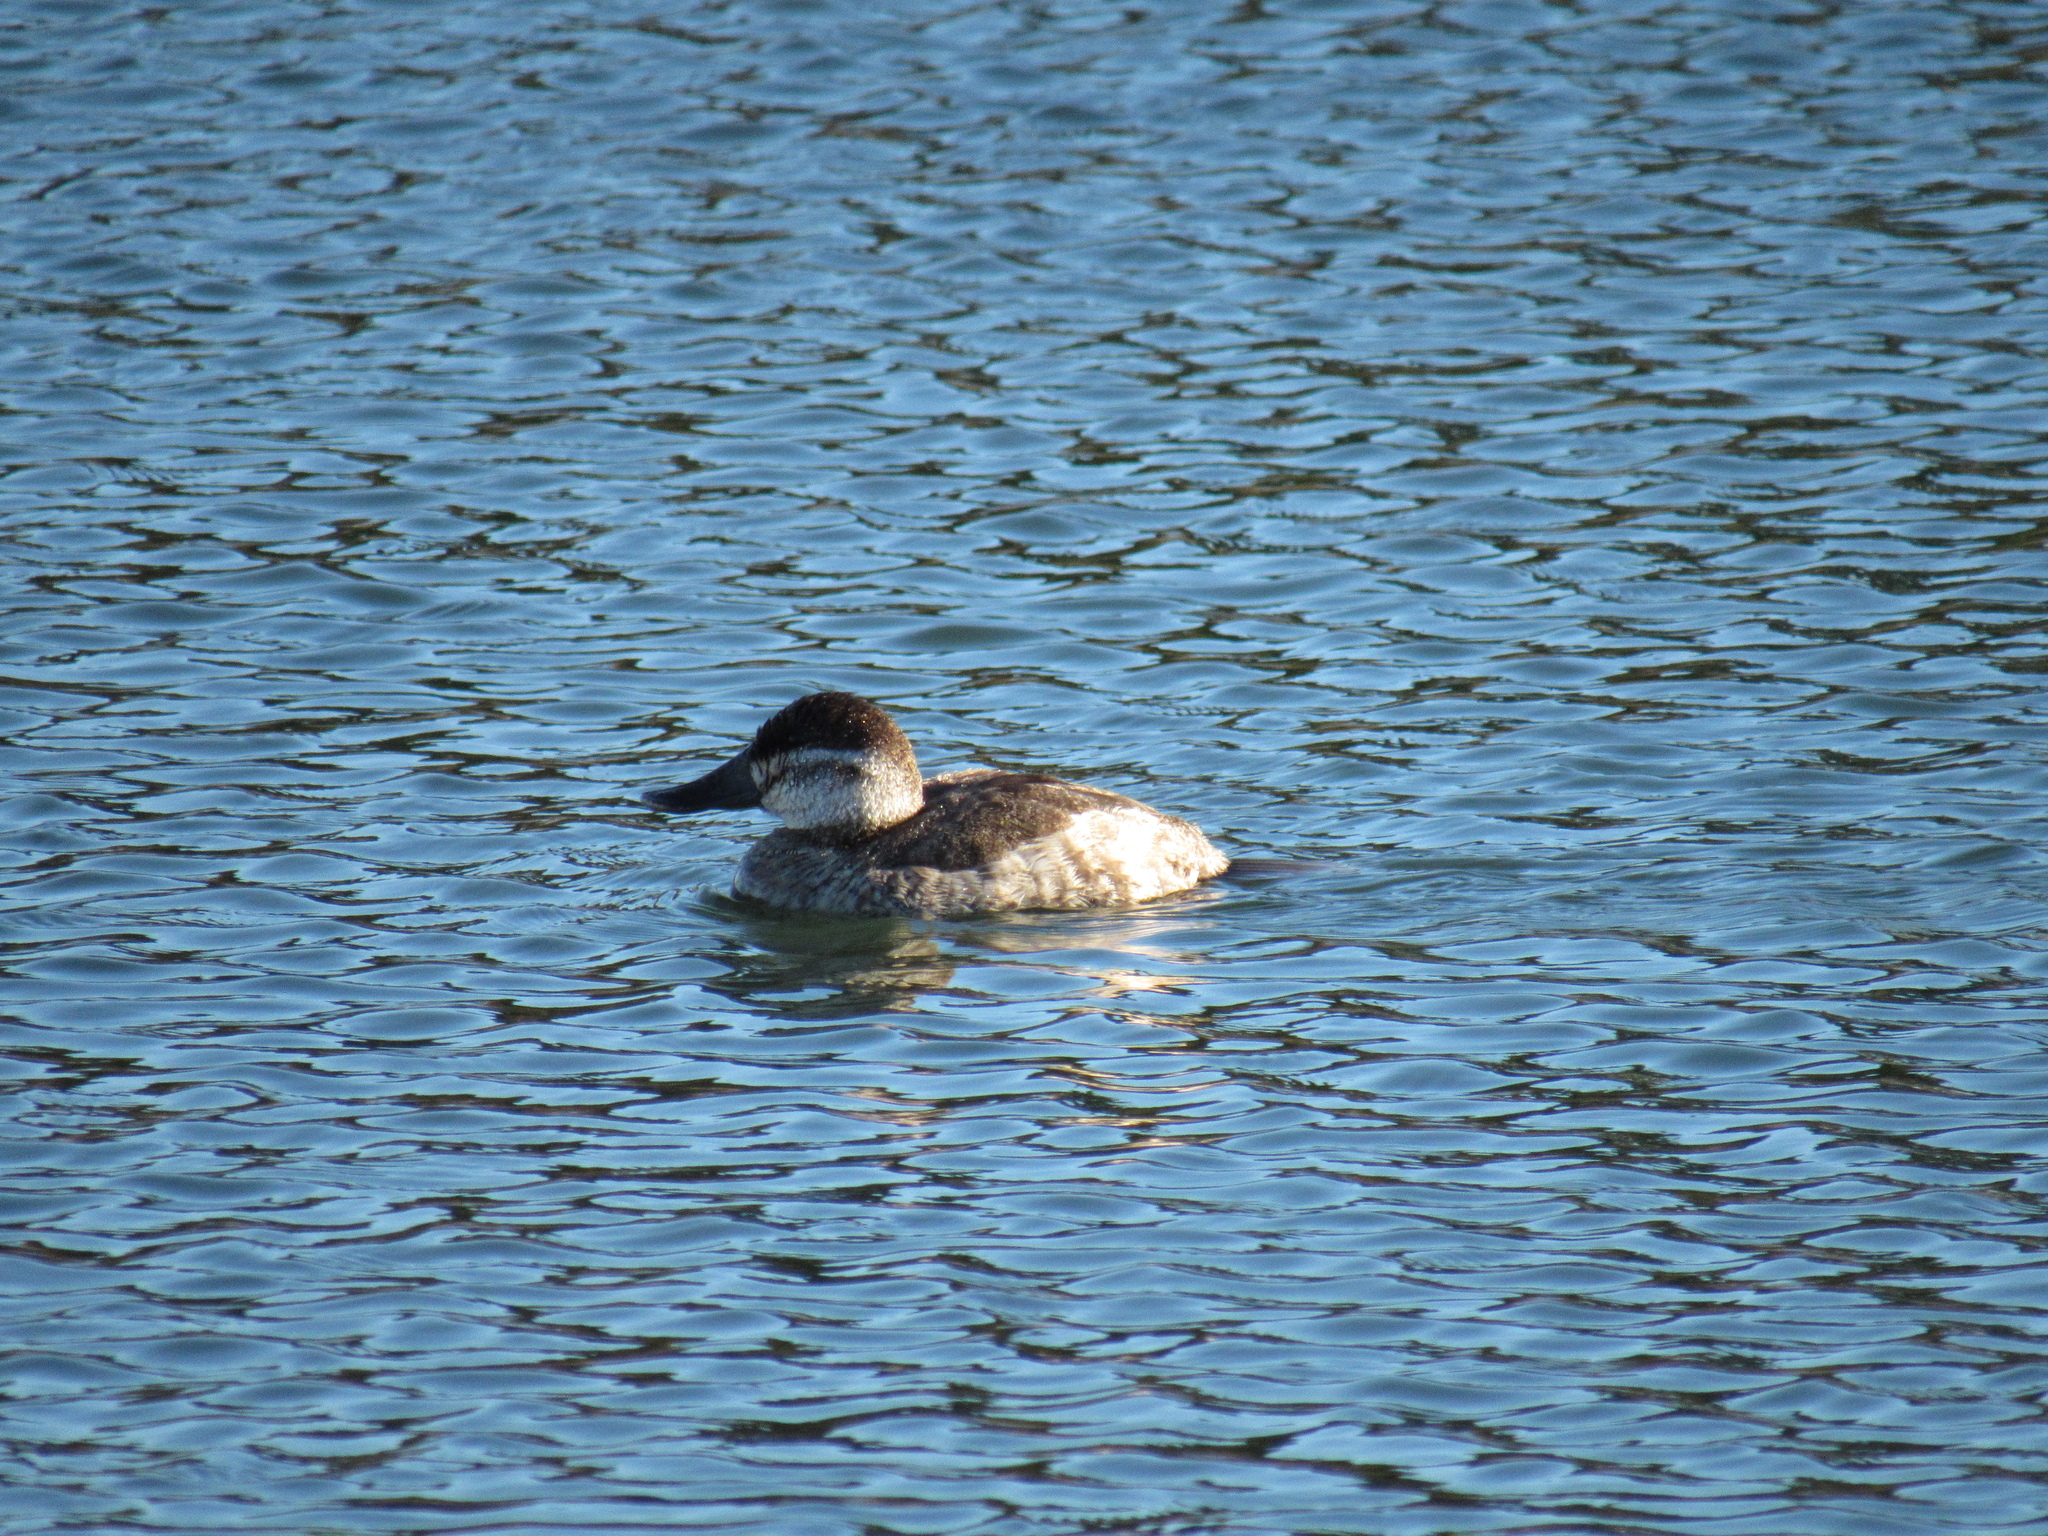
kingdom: Animalia
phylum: Chordata
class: Aves
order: Anseriformes
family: Anatidae
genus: Oxyura
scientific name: Oxyura jamaicensis
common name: Ruddy duck
